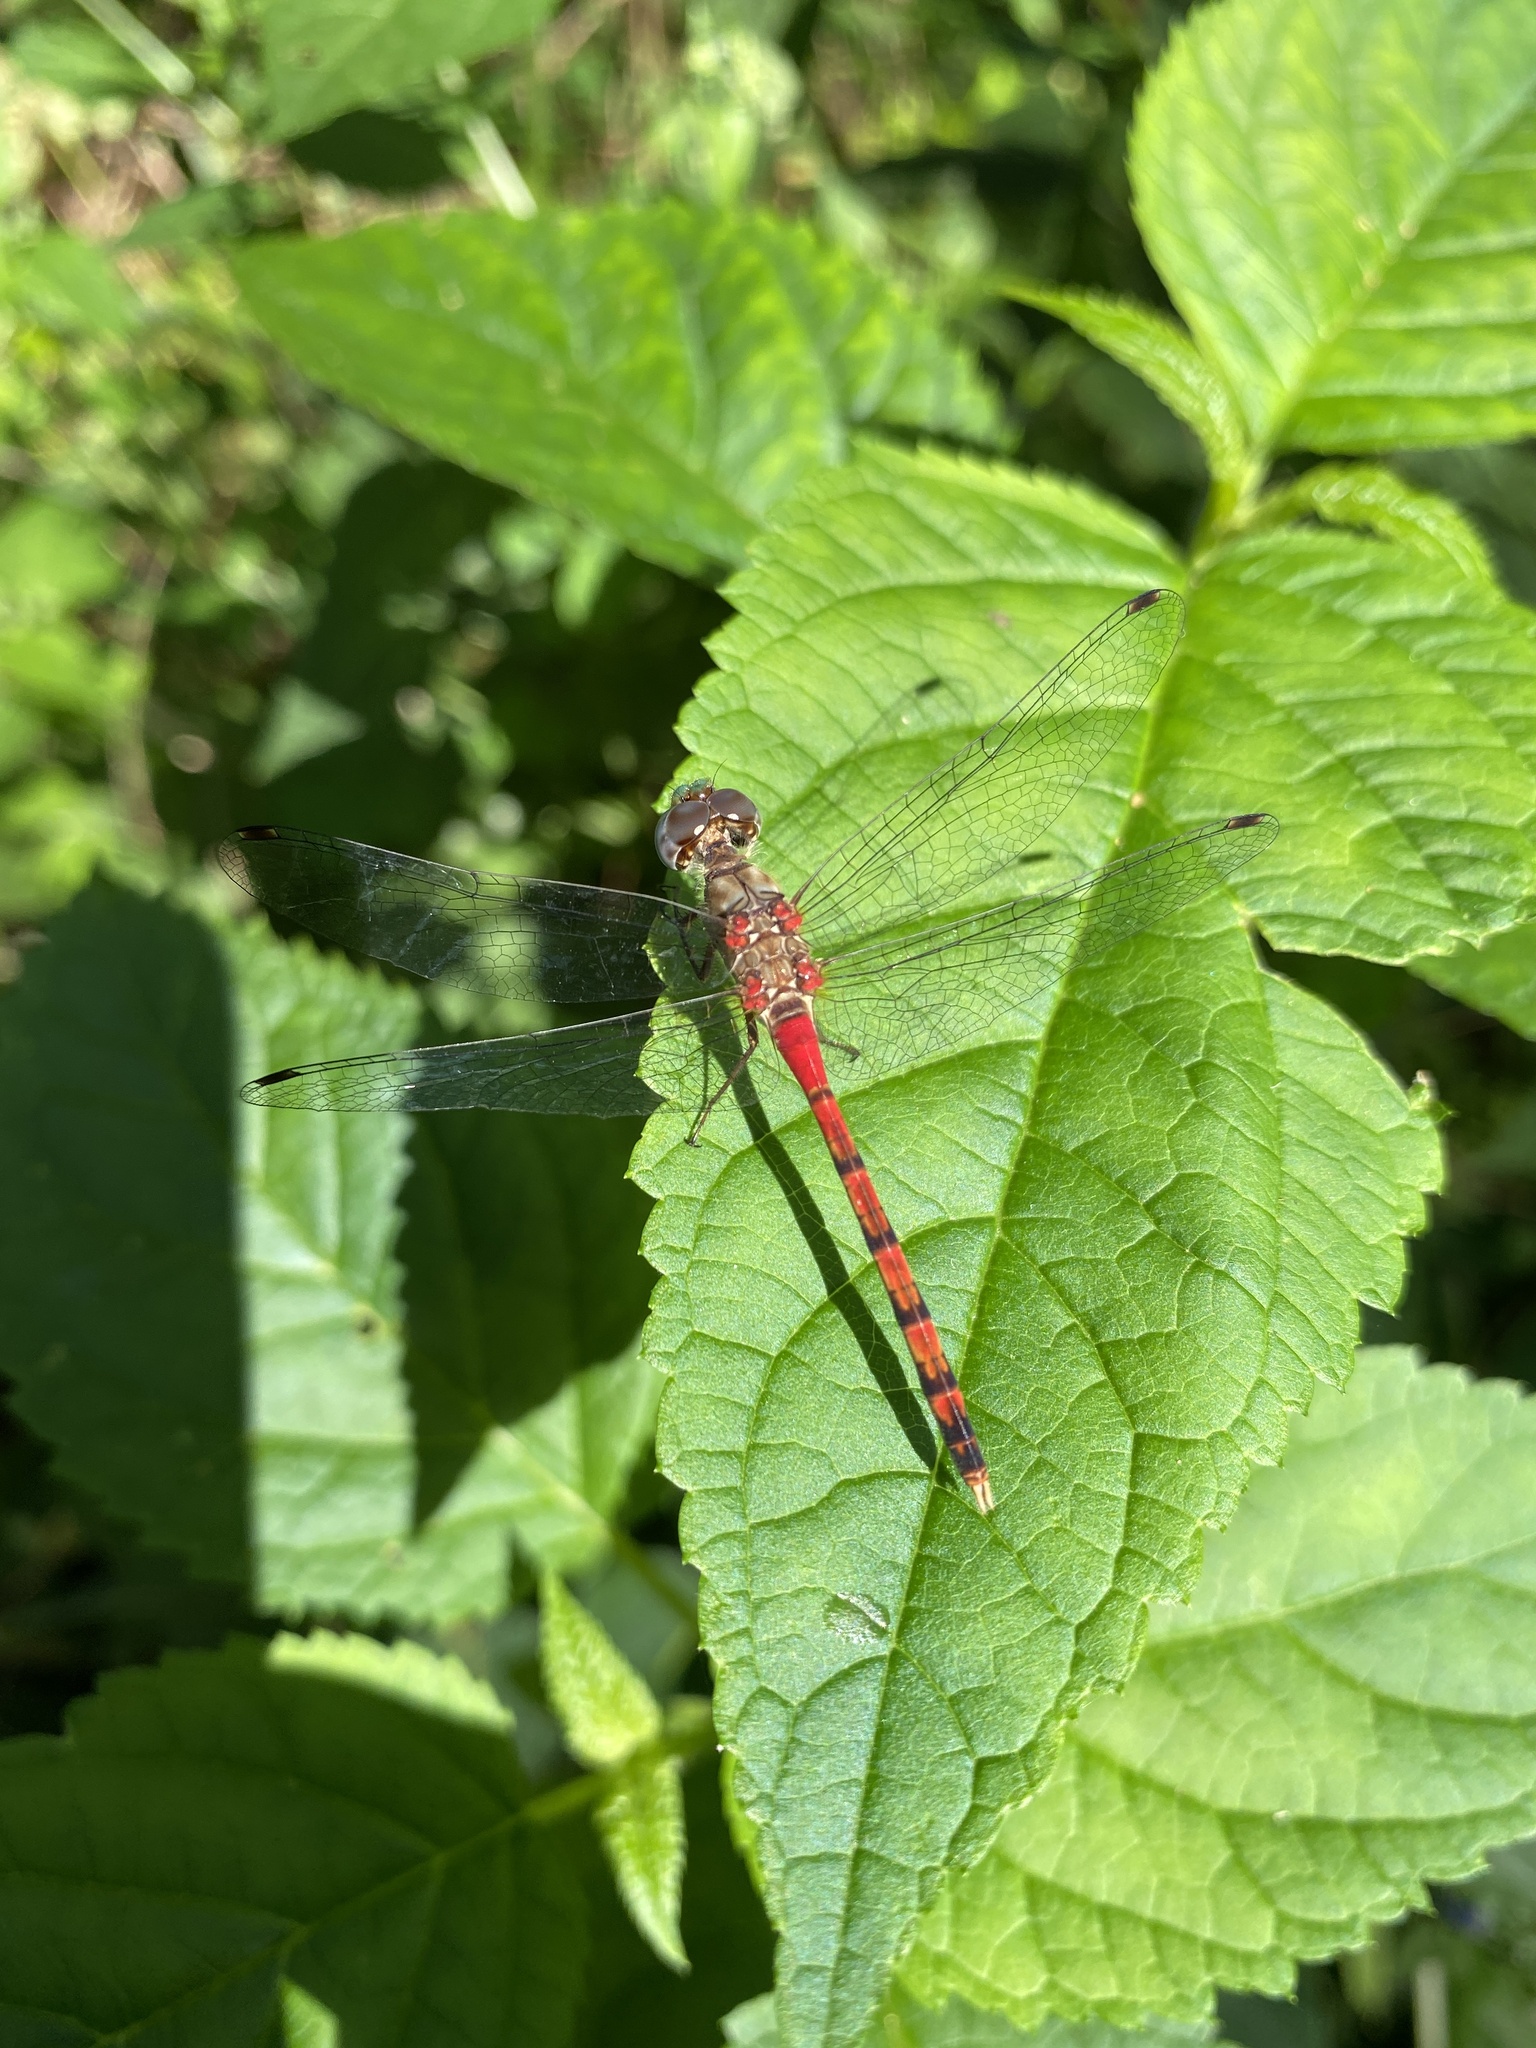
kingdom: Animalia
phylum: Arthropoda
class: Insecta
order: Odonata
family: Libellulidae
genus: Sympetrum
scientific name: Sympetrum ambiguum
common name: Blue-faced meadowhawk
